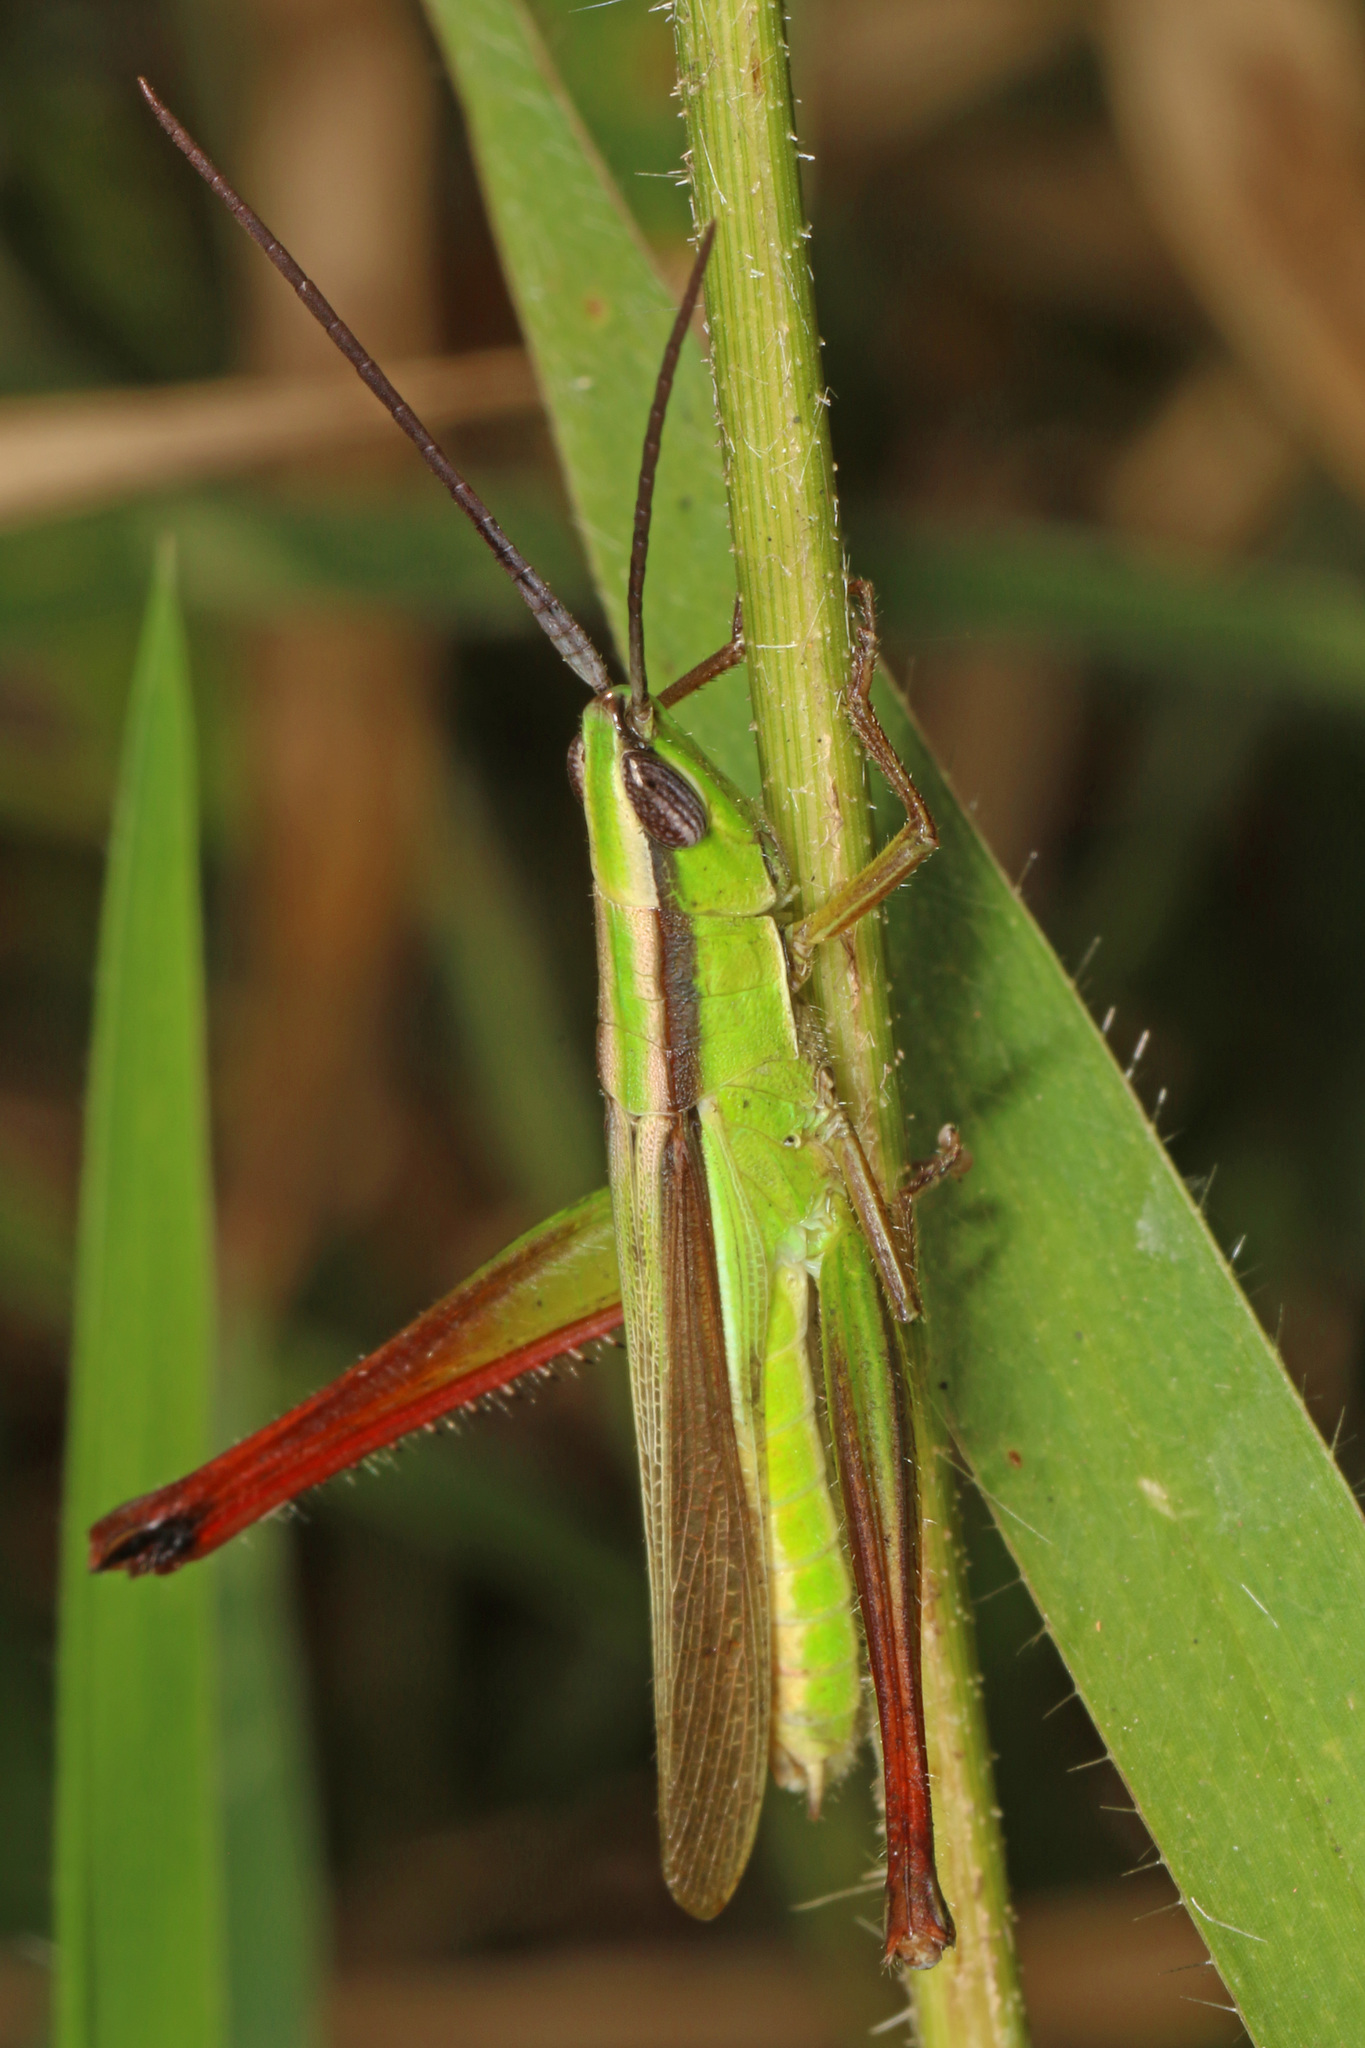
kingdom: Animalia
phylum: Arthropoda
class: Insecta
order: Orthoptera
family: Acrididae
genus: Orthochtha
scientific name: Orthochtha dasycnemis
